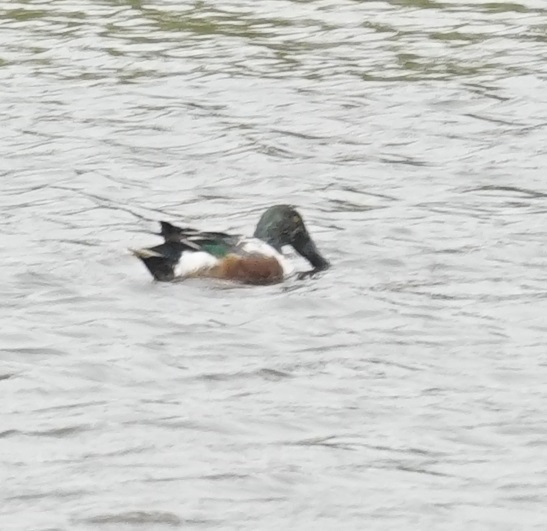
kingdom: Animalia
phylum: Chordata
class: Aves
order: Anseriformes
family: Anatidae
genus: Spatula
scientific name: Spatula clypeata
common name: Northern shoveler
